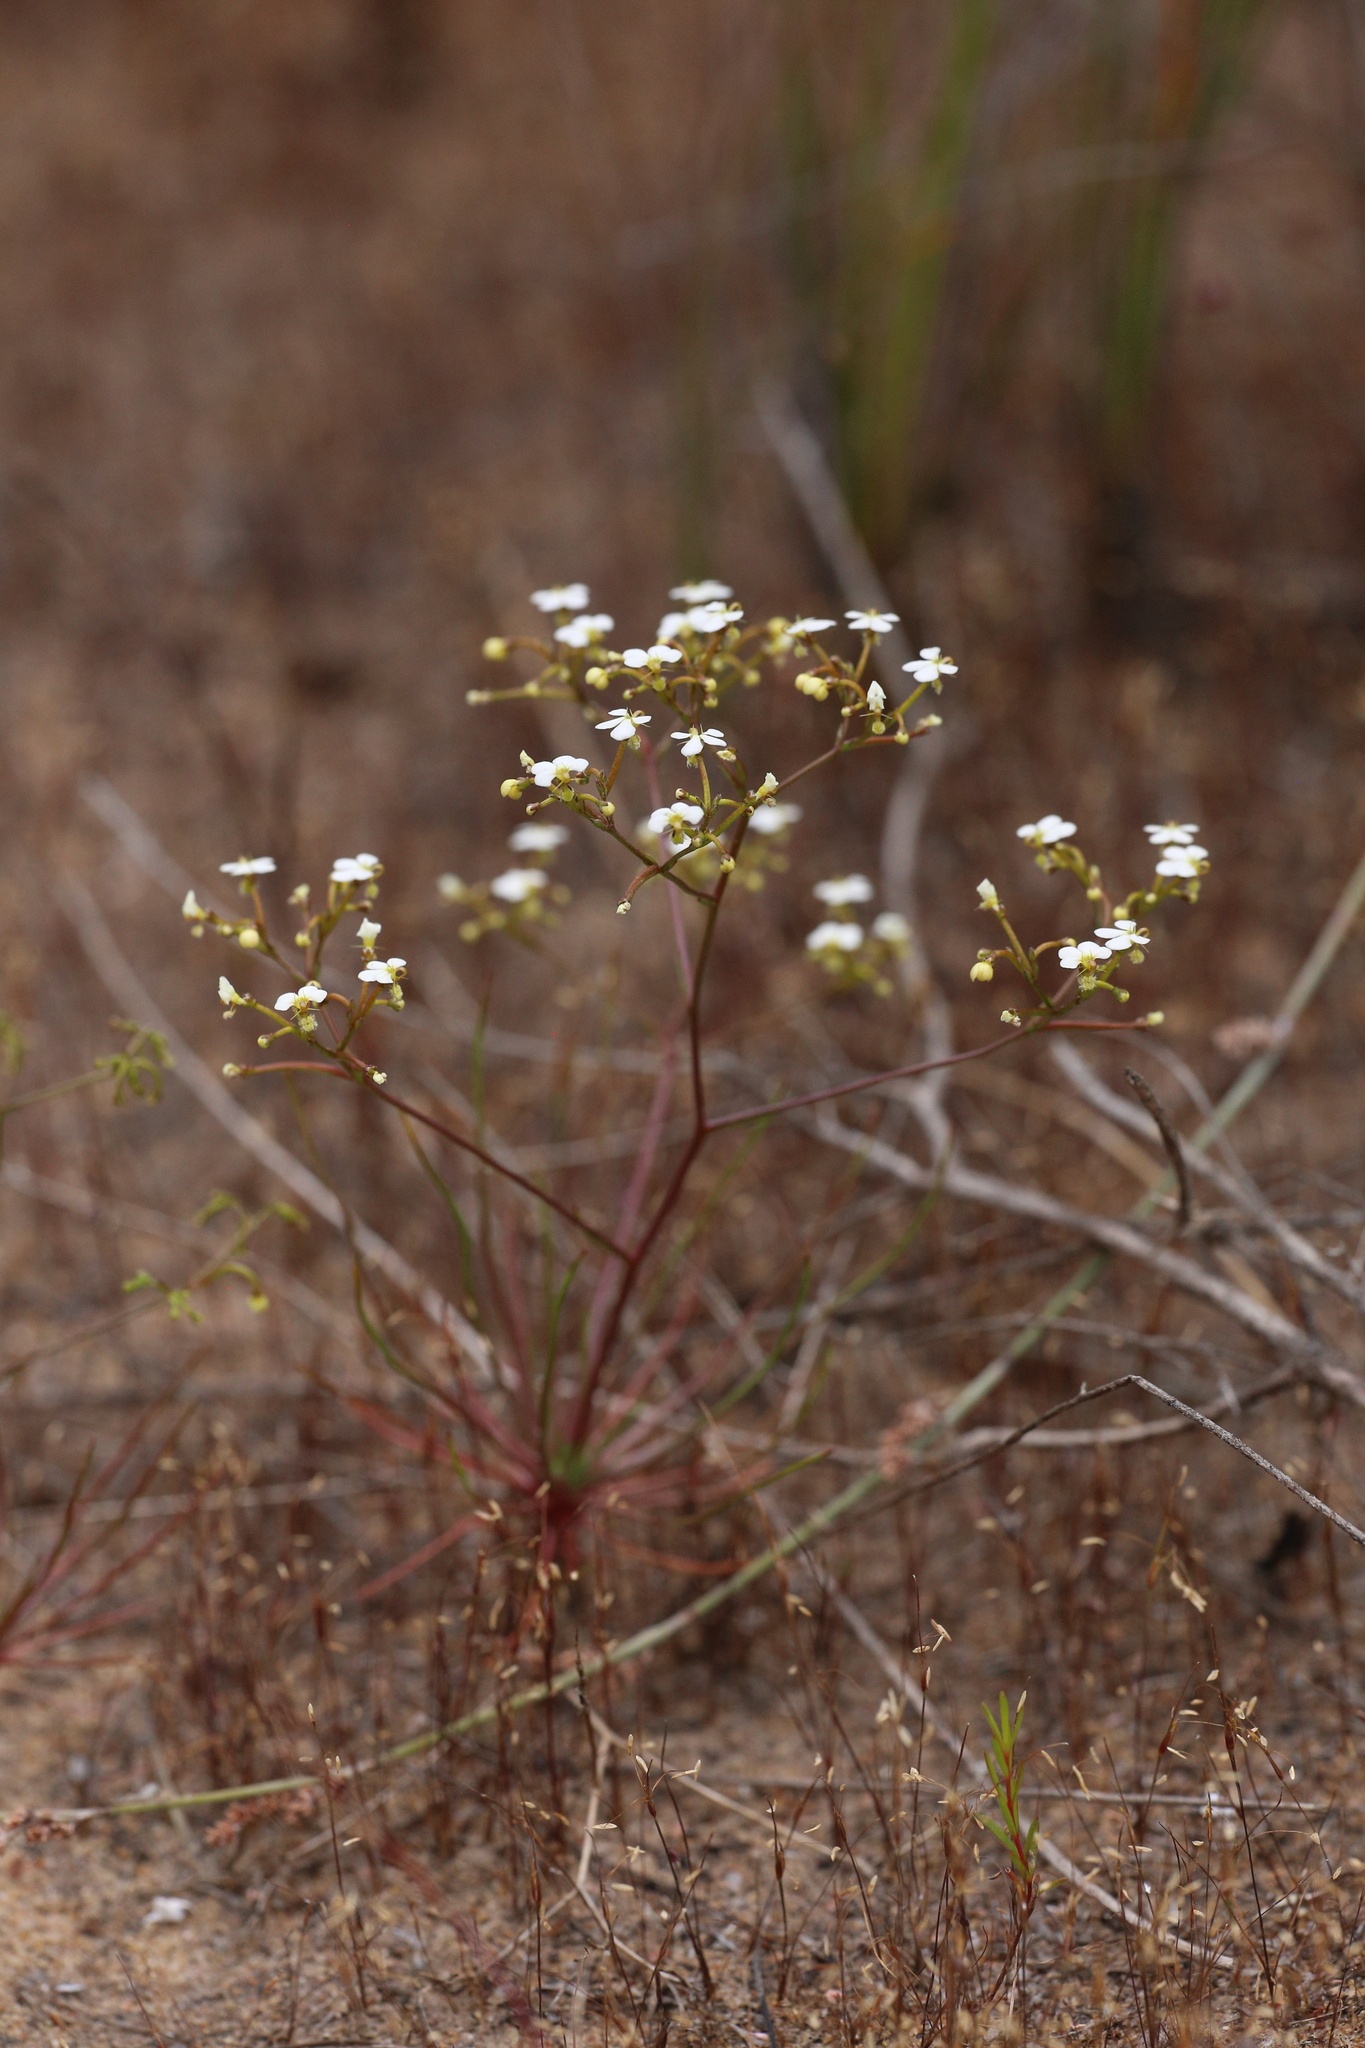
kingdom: Plantae
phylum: Tracheophyta
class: Magnoliopsida
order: Asterales
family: Stylidiaceae
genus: Stylidium
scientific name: Stylidium divaricatum
